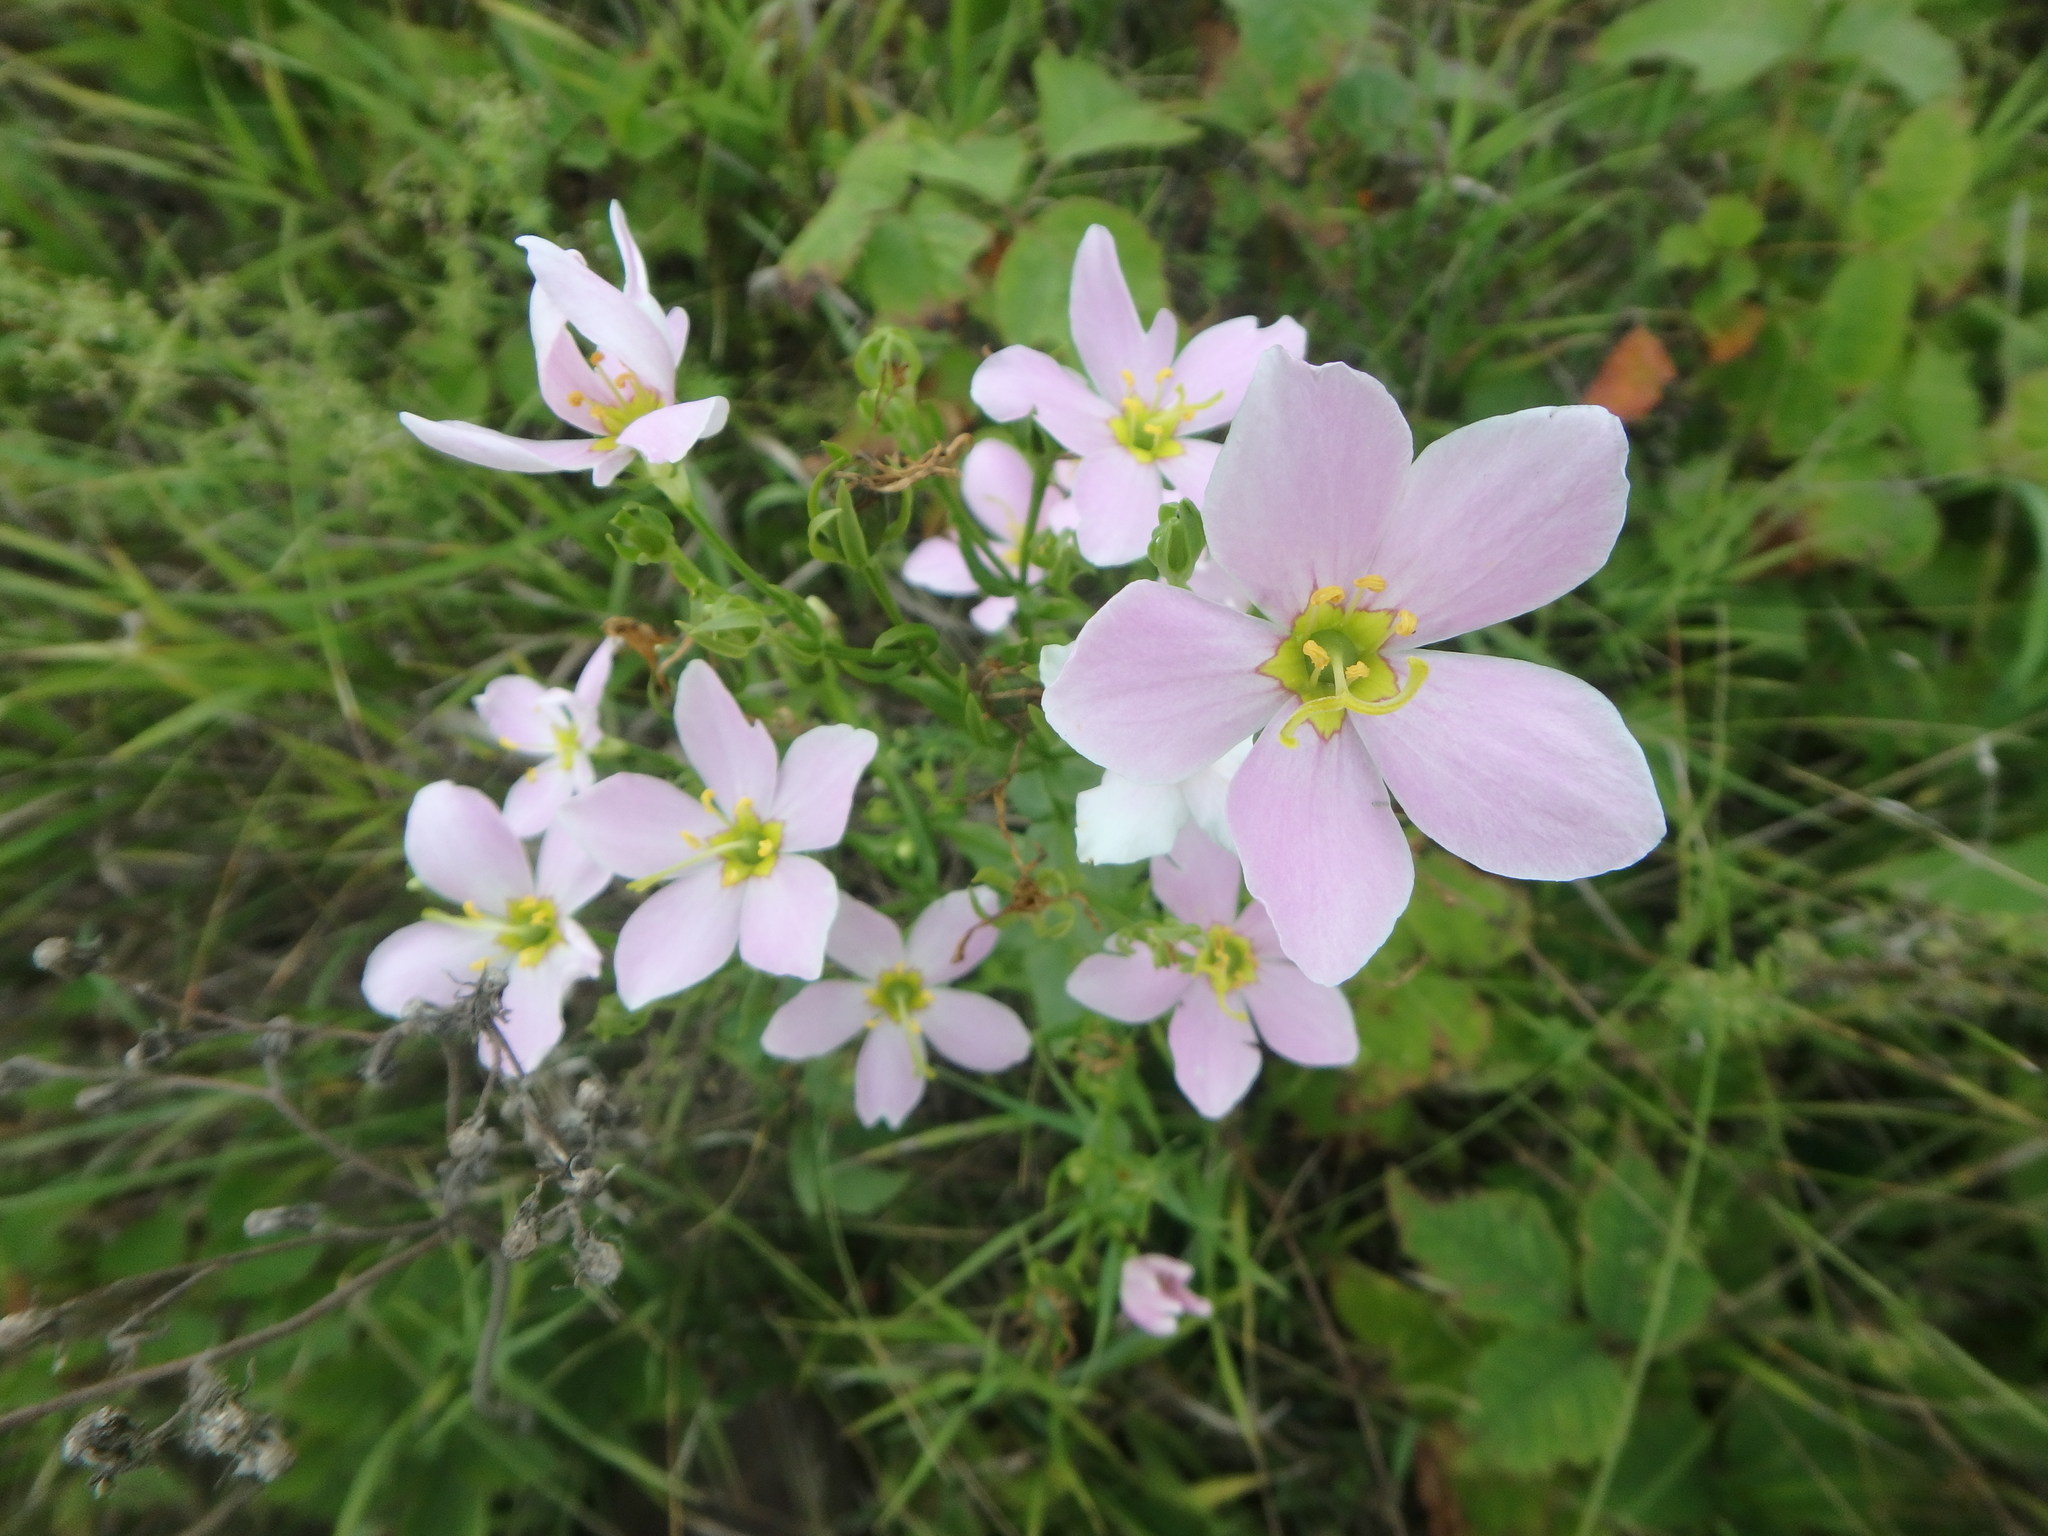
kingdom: Plantae
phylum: Tracheophyta
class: Magnoliopsida
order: Gentianales
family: Gentianaceae
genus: Sabatia
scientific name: Sabatia angularis
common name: Rose-pink
